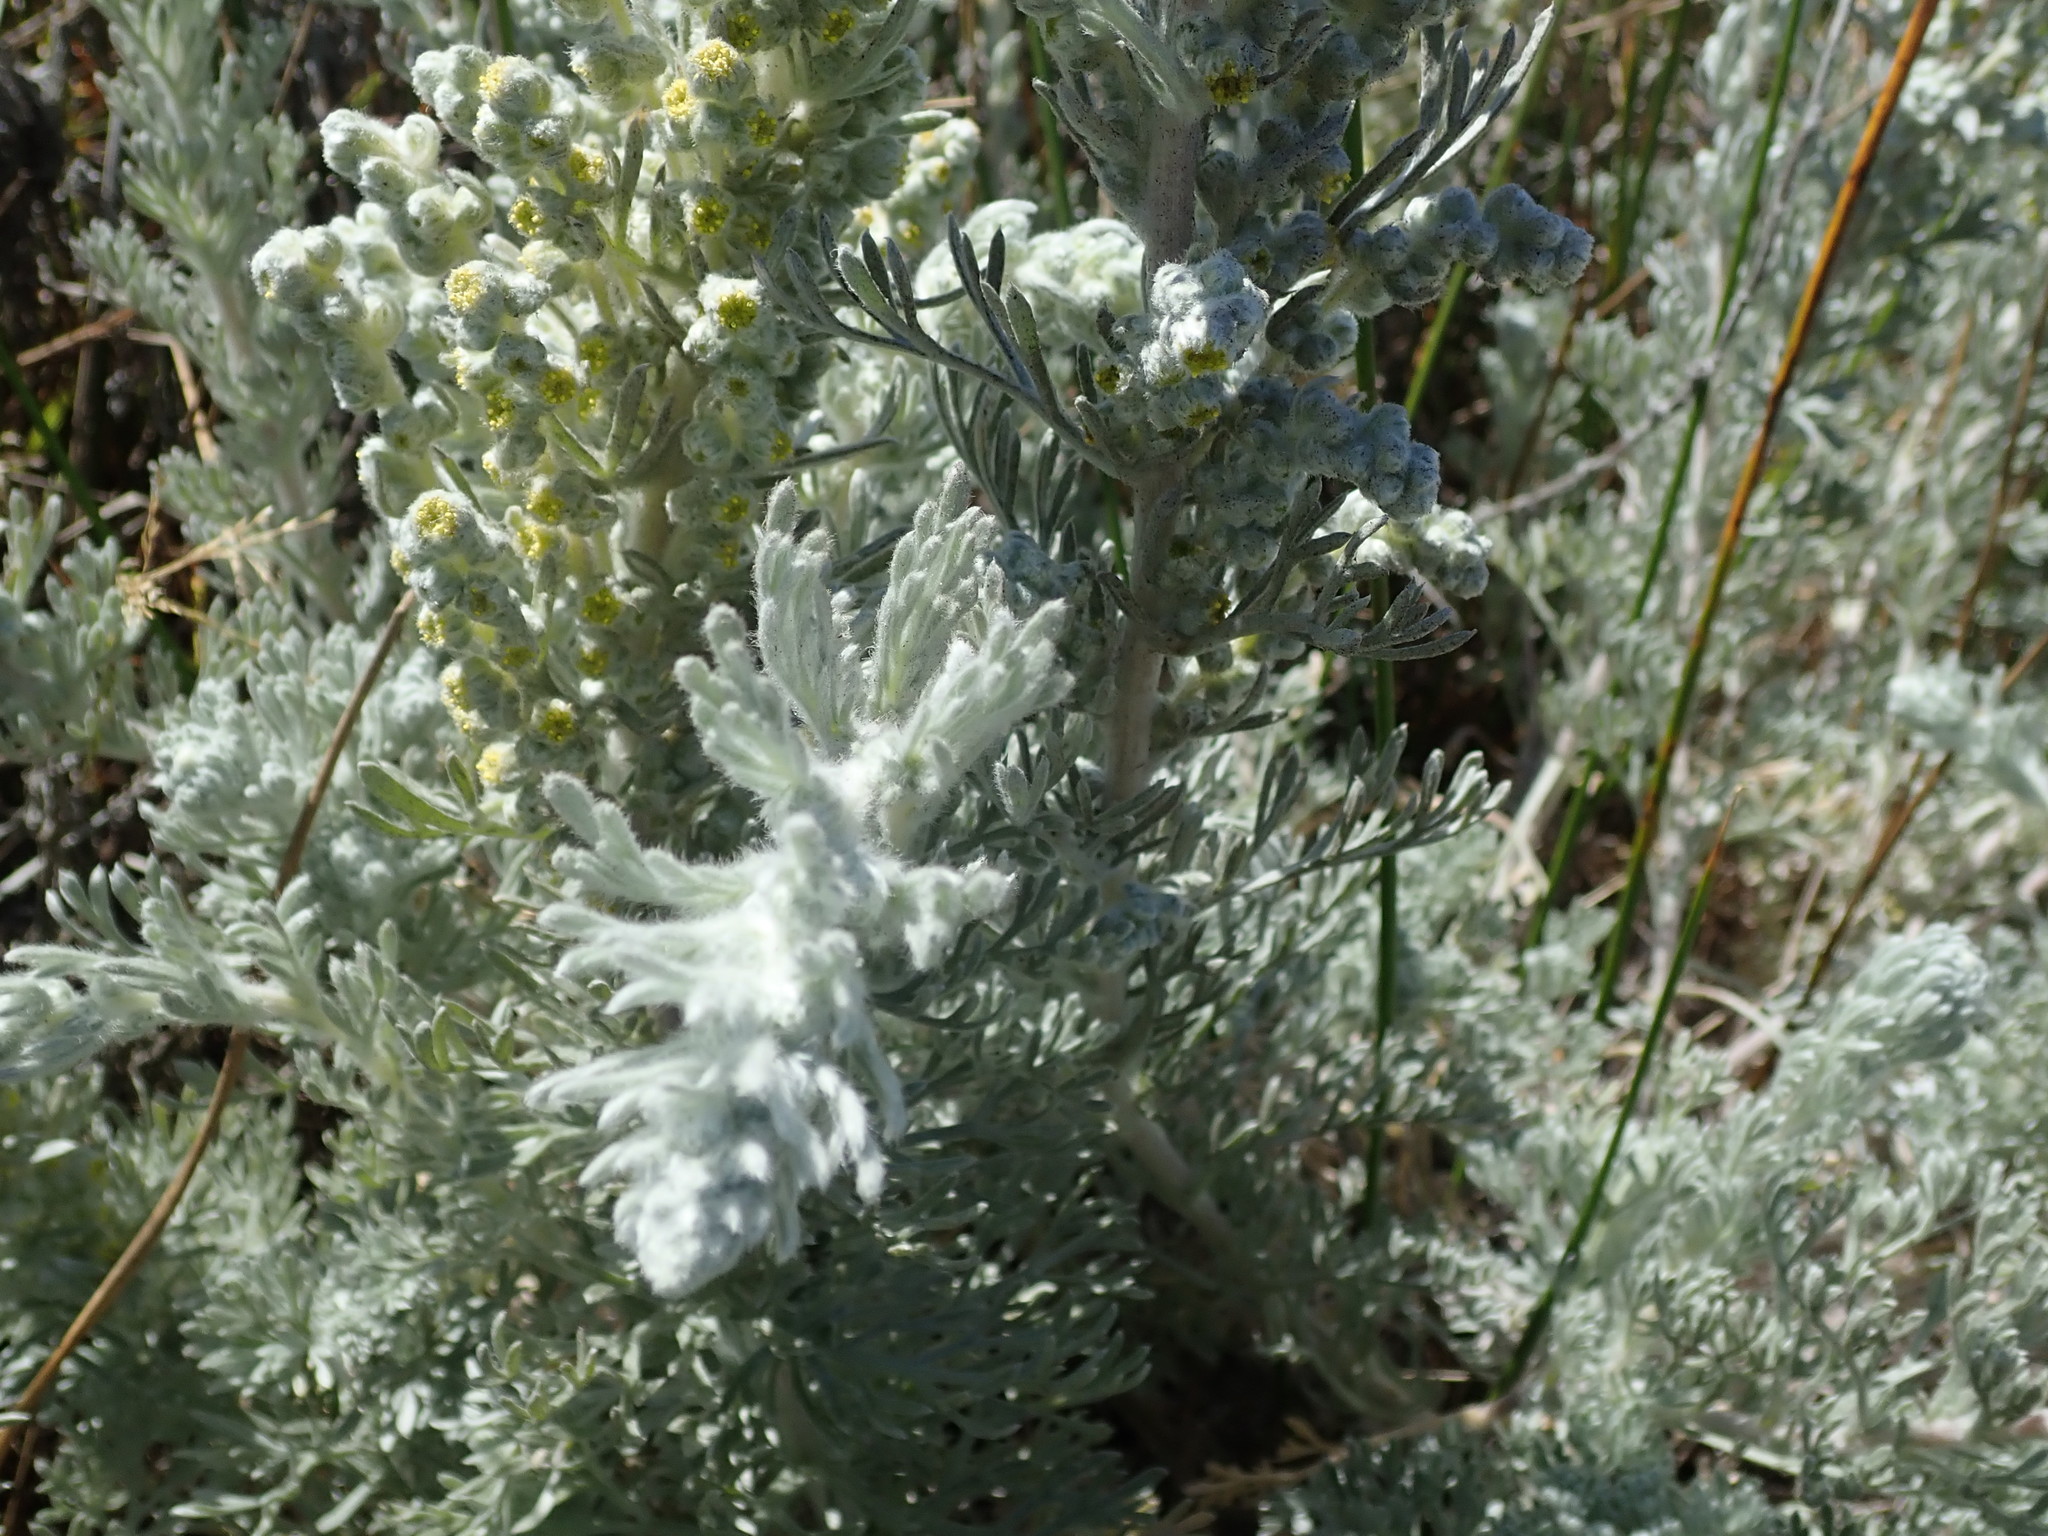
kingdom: Plantae
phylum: Tracheophyta
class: Magnoliopsida
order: Asterales
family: Asteraceae
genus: Artemisia
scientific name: Artemisia pycnocephala
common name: Coastal sagewort
